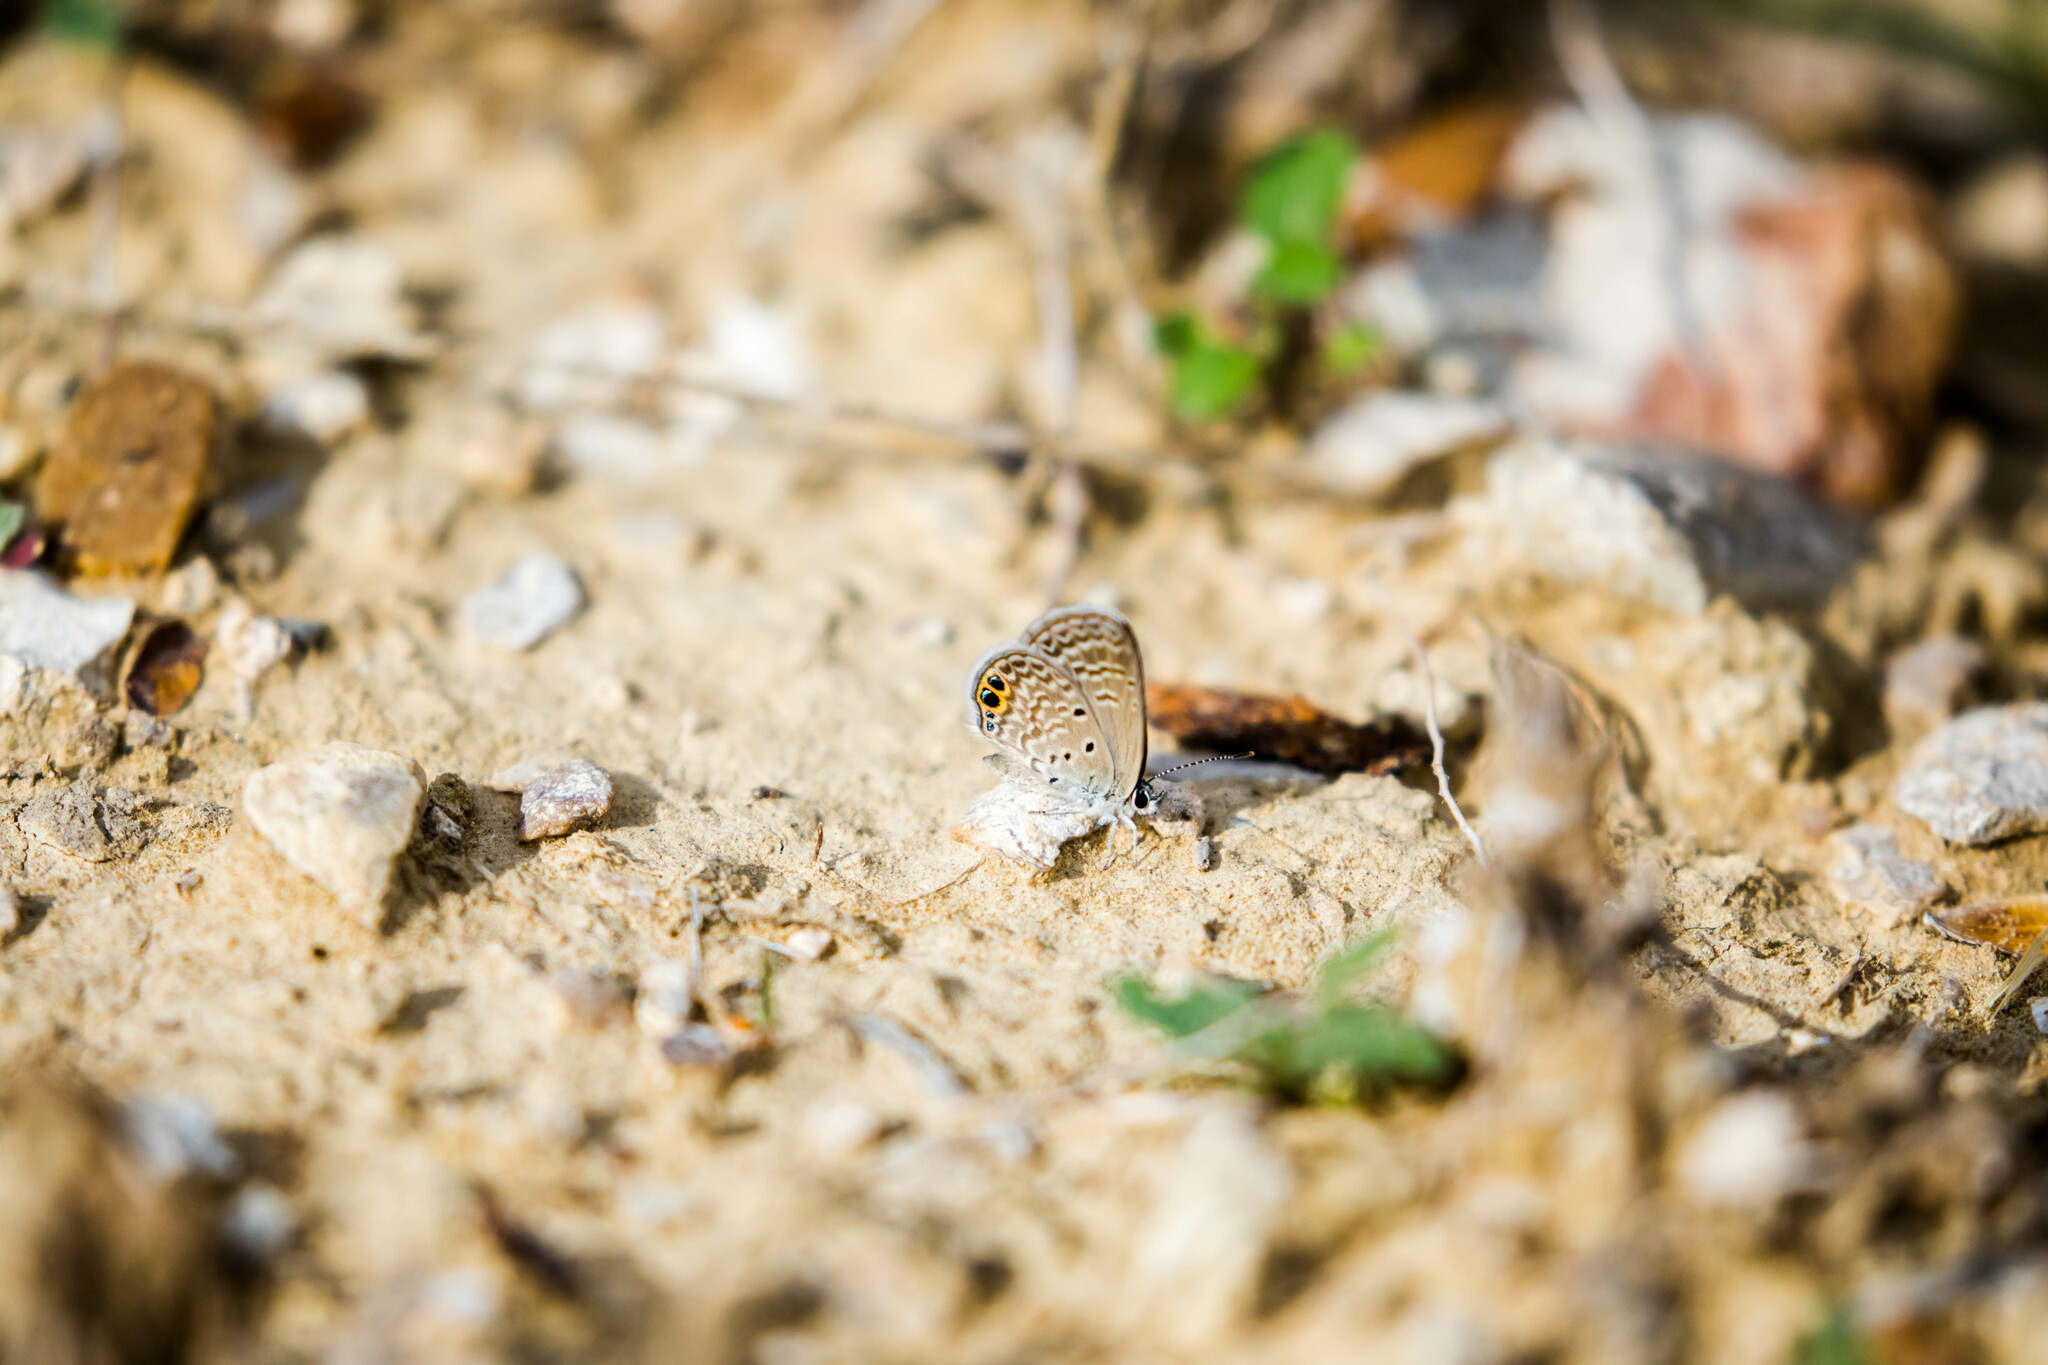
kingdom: Animalia
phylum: Arthropoda
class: Insecta
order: Lepidoptera
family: Lycaenidae
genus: Hemiargus
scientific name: Hemiargus ceraunus
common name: Ceraunus blue
